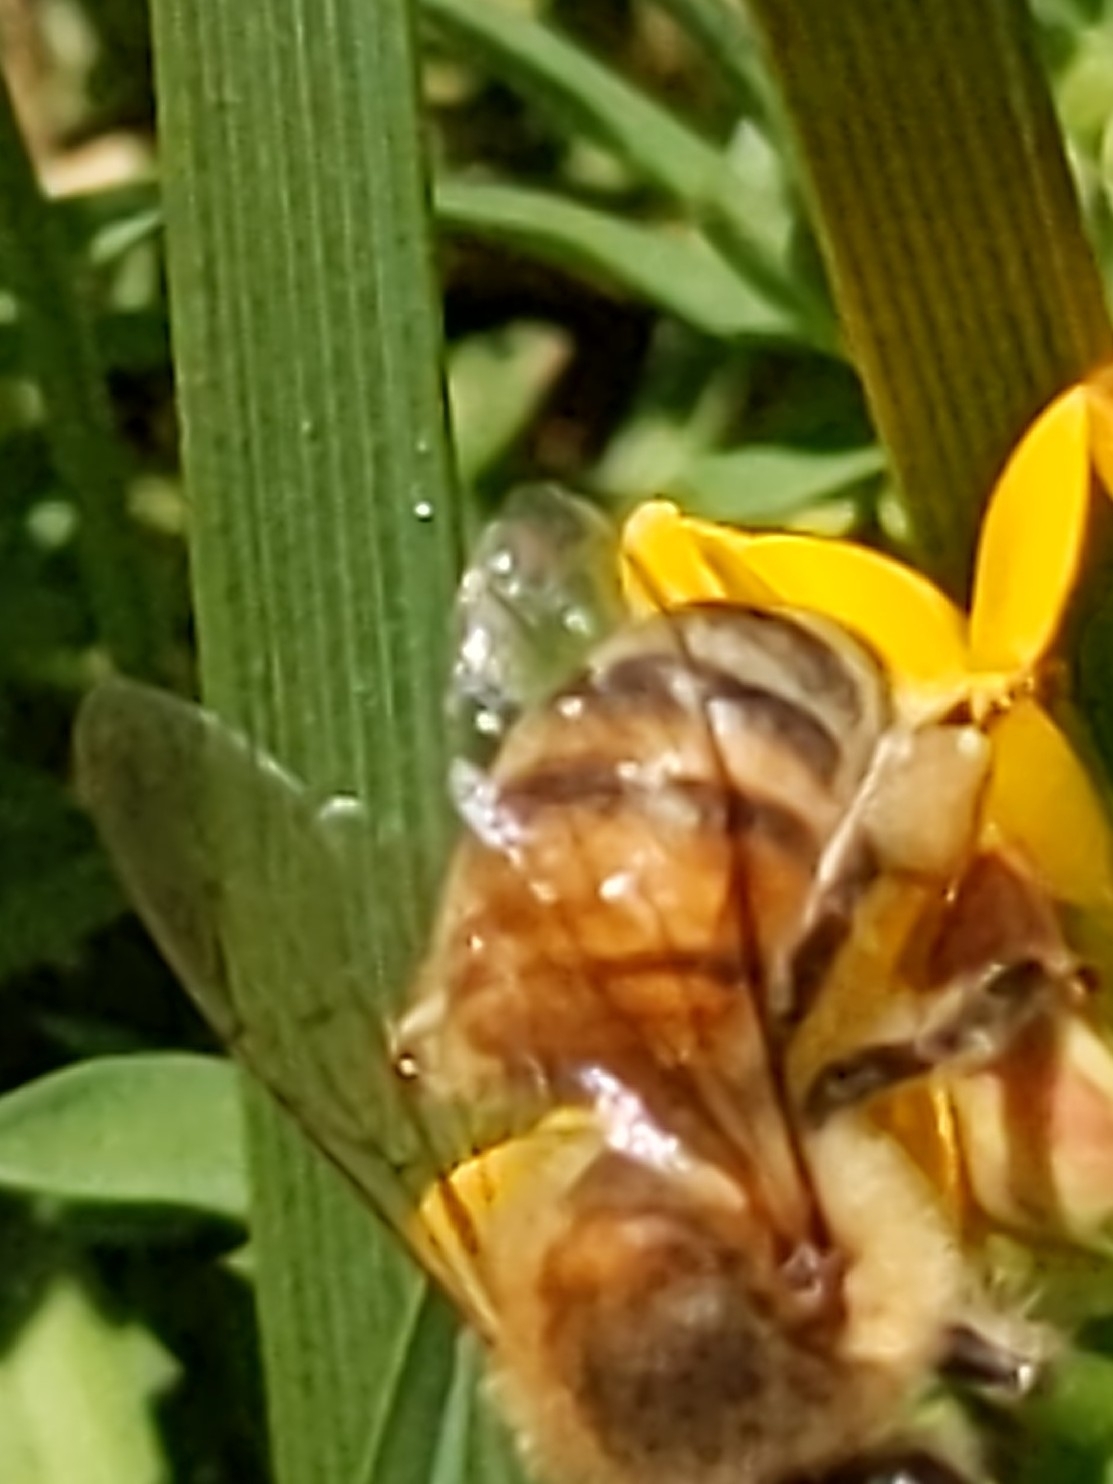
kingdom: Animalia
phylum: Arthropoda
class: Insecta
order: Hymenoptera
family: Apidae
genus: Apis
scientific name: Apis mellifera
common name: Honey bee
